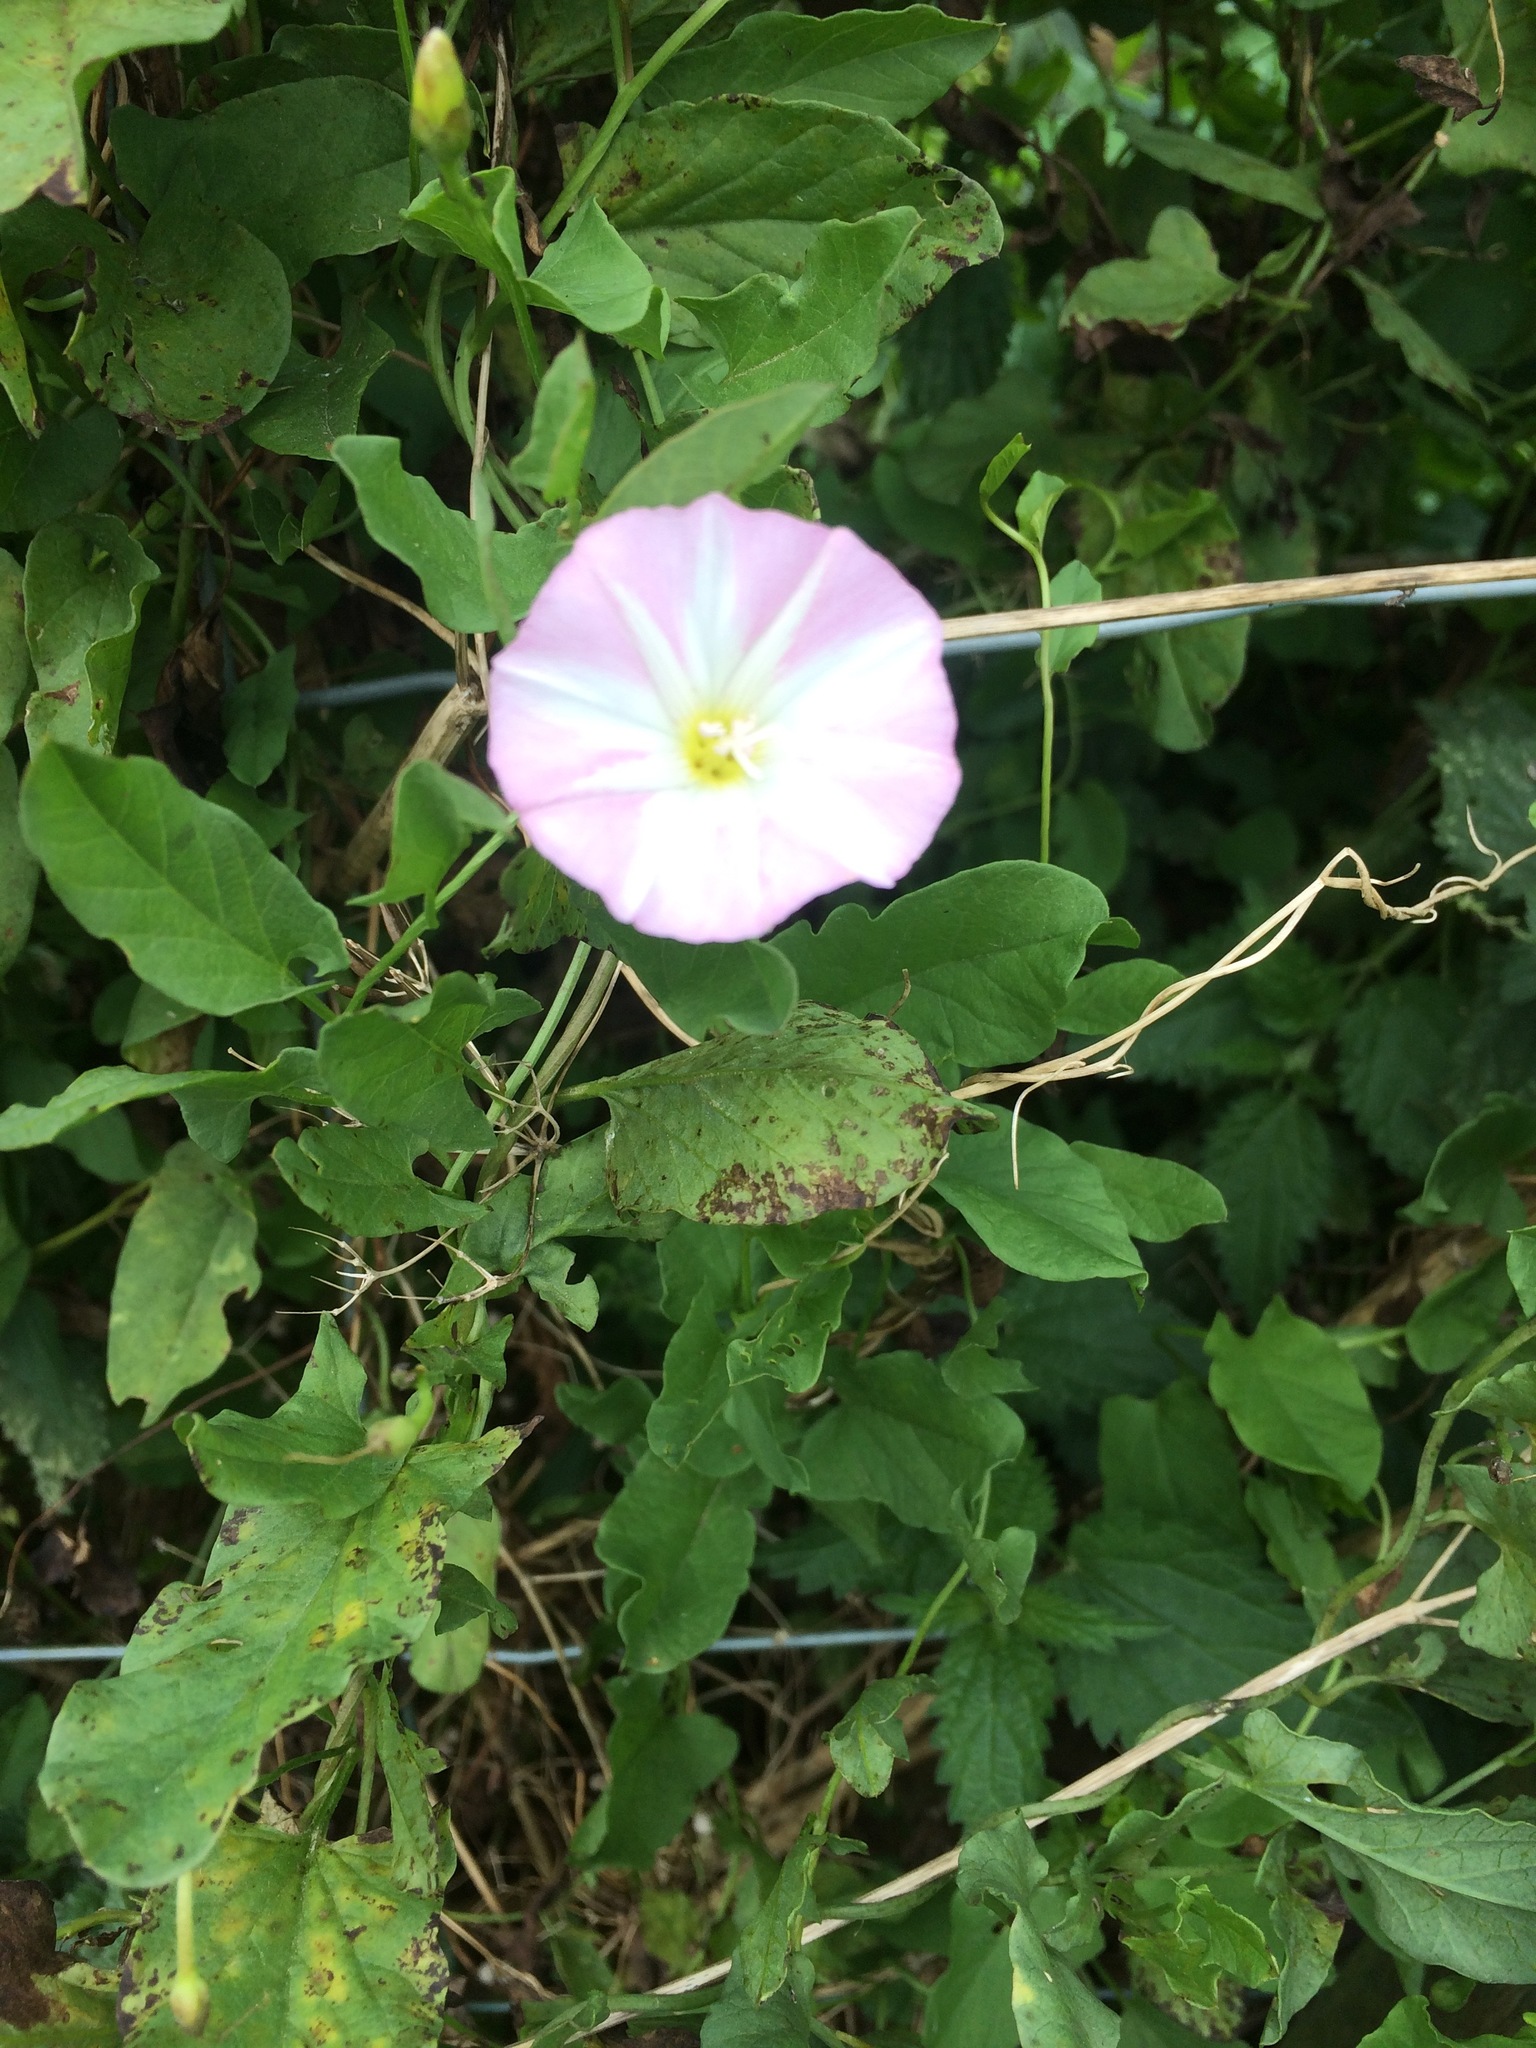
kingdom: Plantae
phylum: Tracheophyta
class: Magnoliopsida
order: Solanales
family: Convolvulaceae
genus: Convolvulus
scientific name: Convolvulus arvensis
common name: Field bindweed
